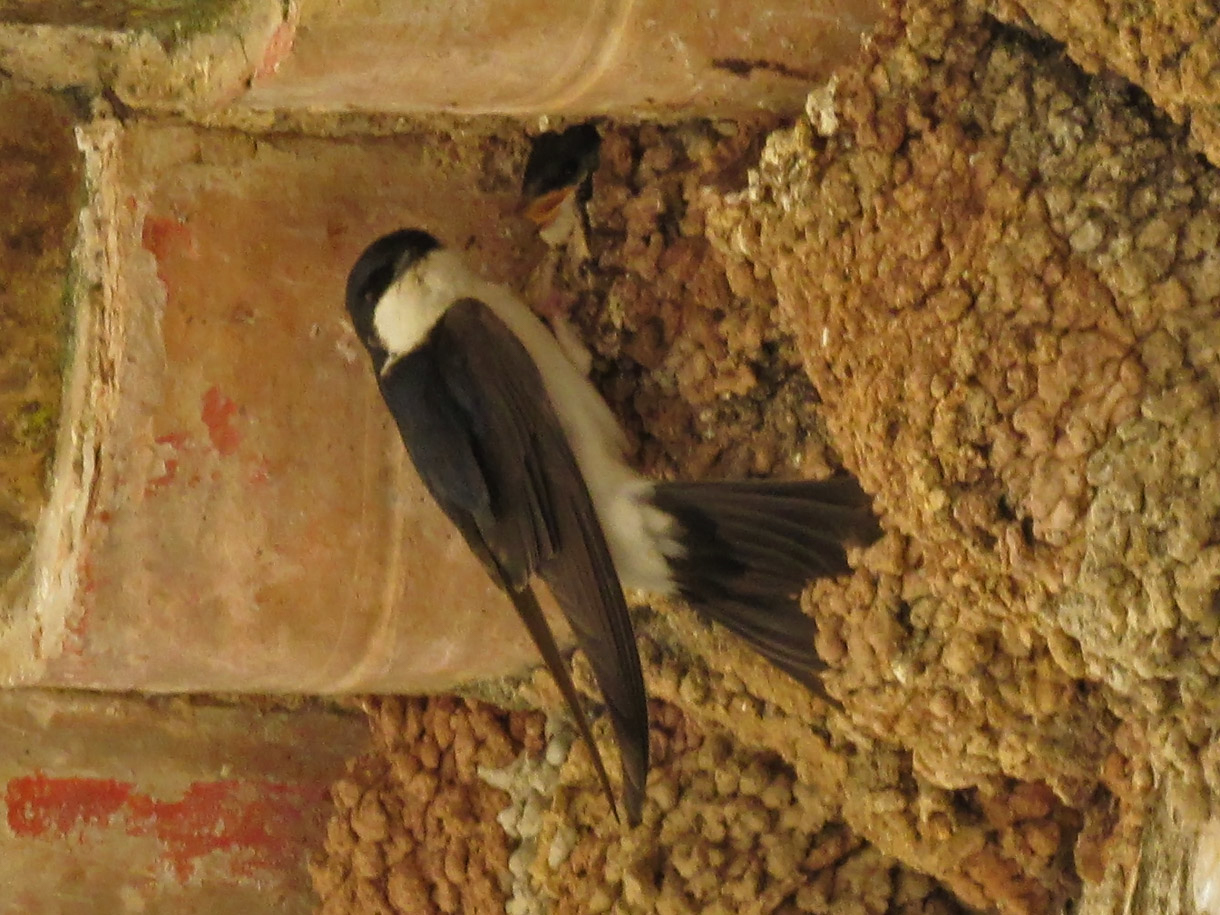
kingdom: Animalia
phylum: Chordata
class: Aves
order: Passeriformes
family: Hirundinidae
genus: Delichon
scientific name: Delichon urbicum
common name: Common house martin
